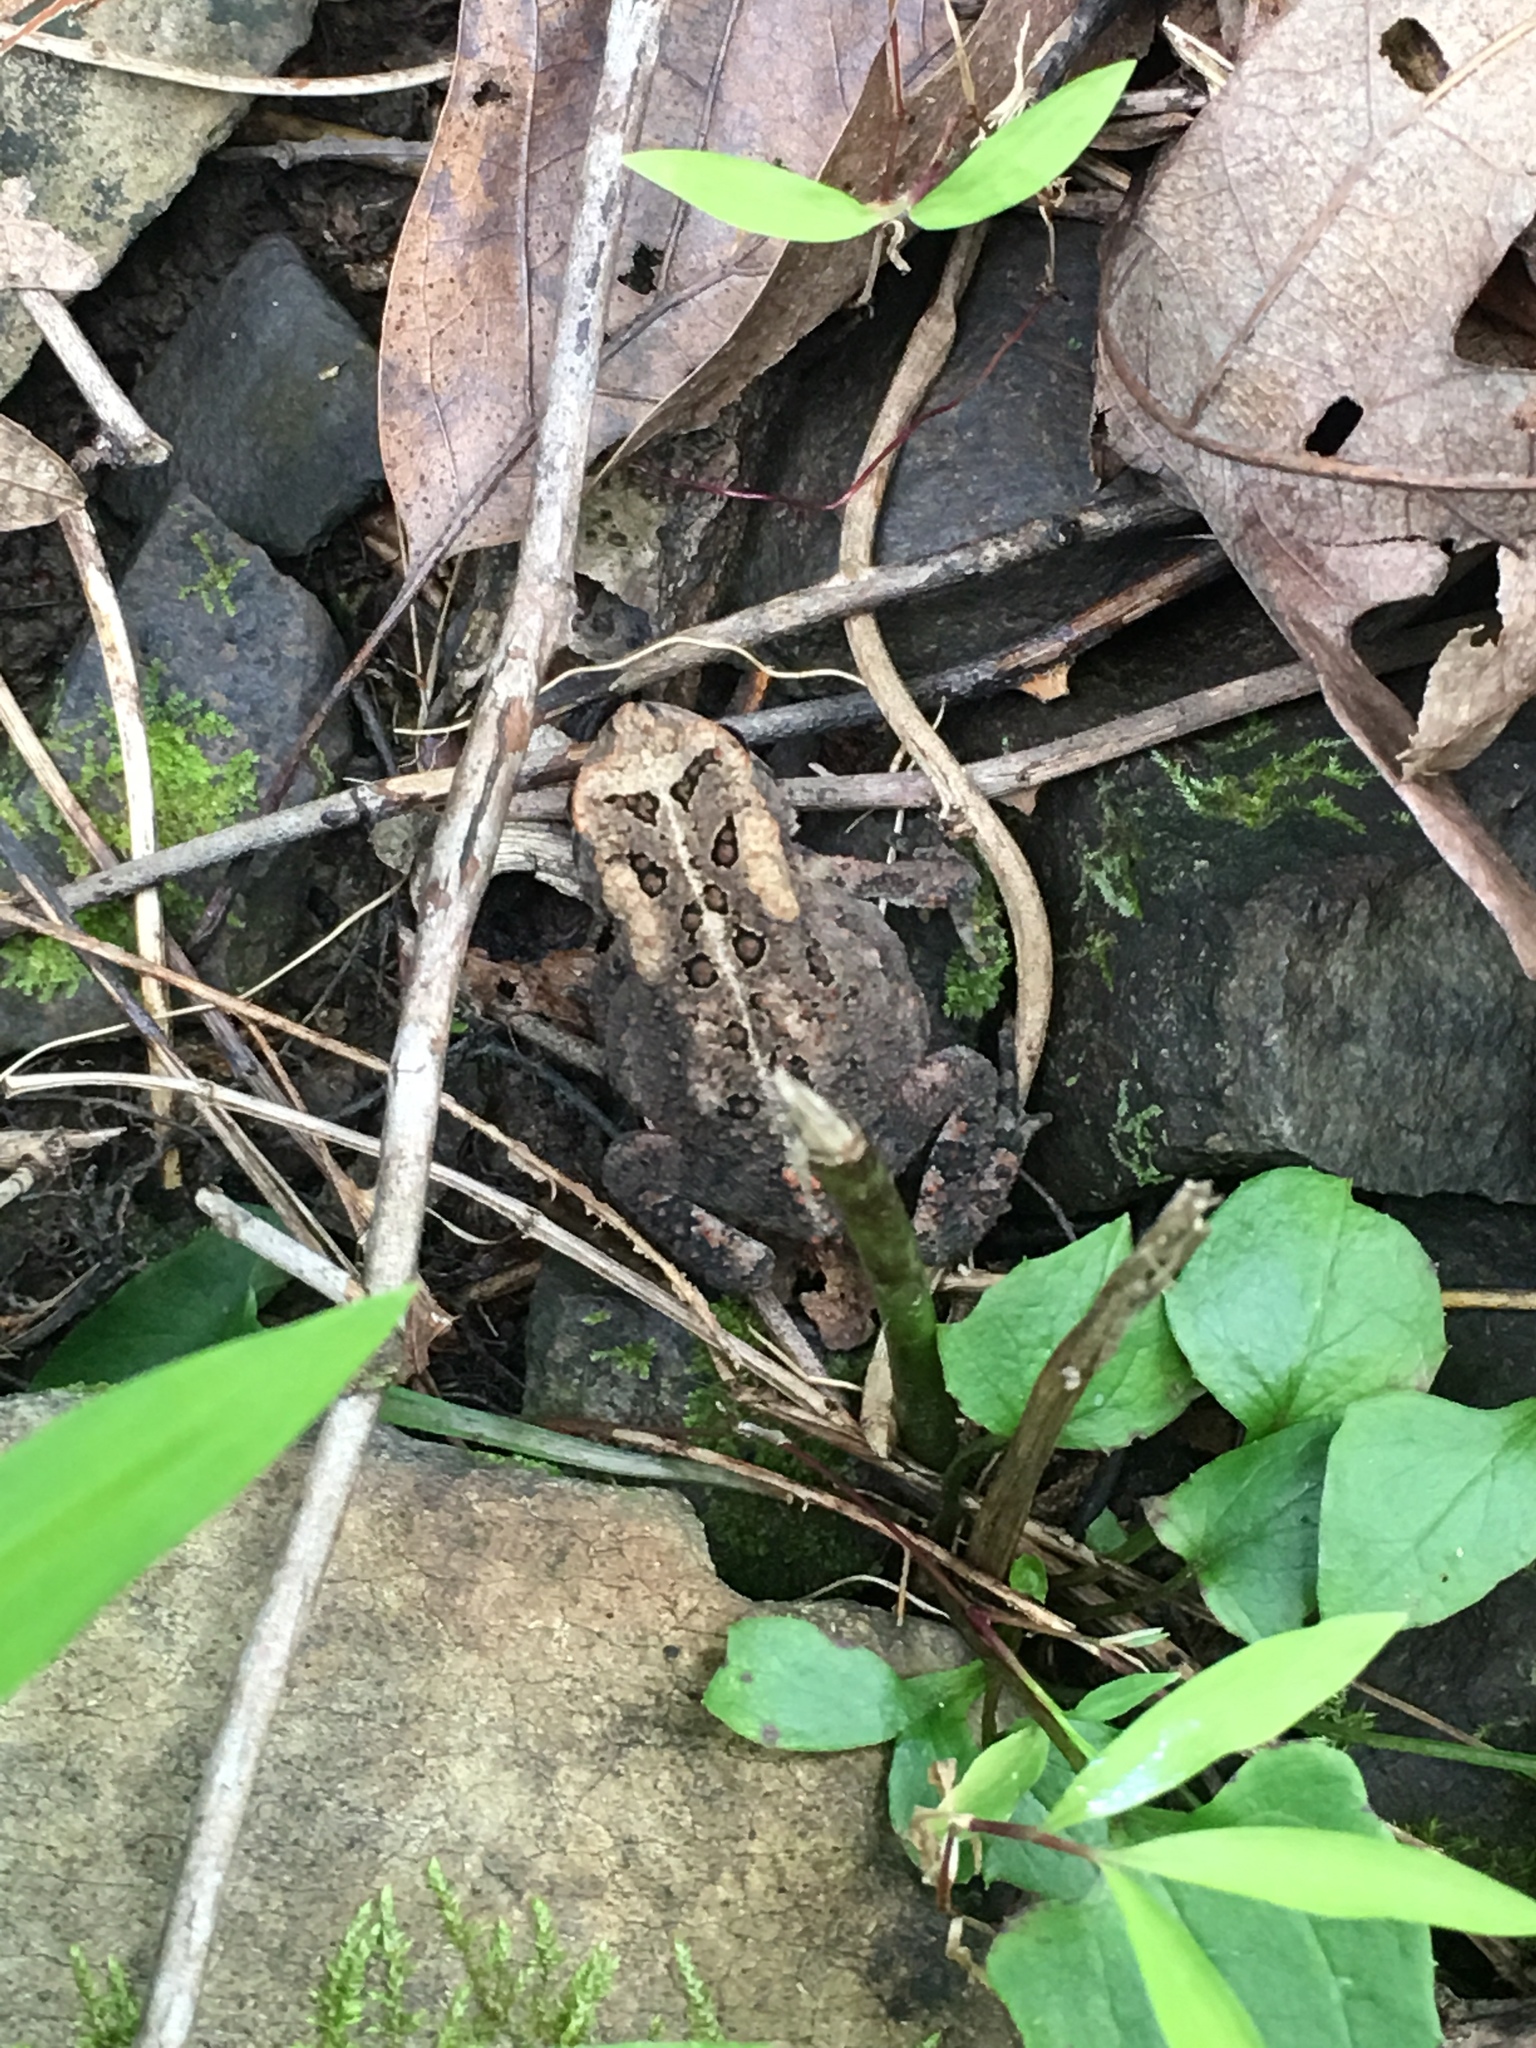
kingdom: Animalia
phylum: Chordata
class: Amphibia
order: Anura
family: Bufonidae
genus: Anaxyrus
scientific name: Anaxyrus americanus
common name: American toad
